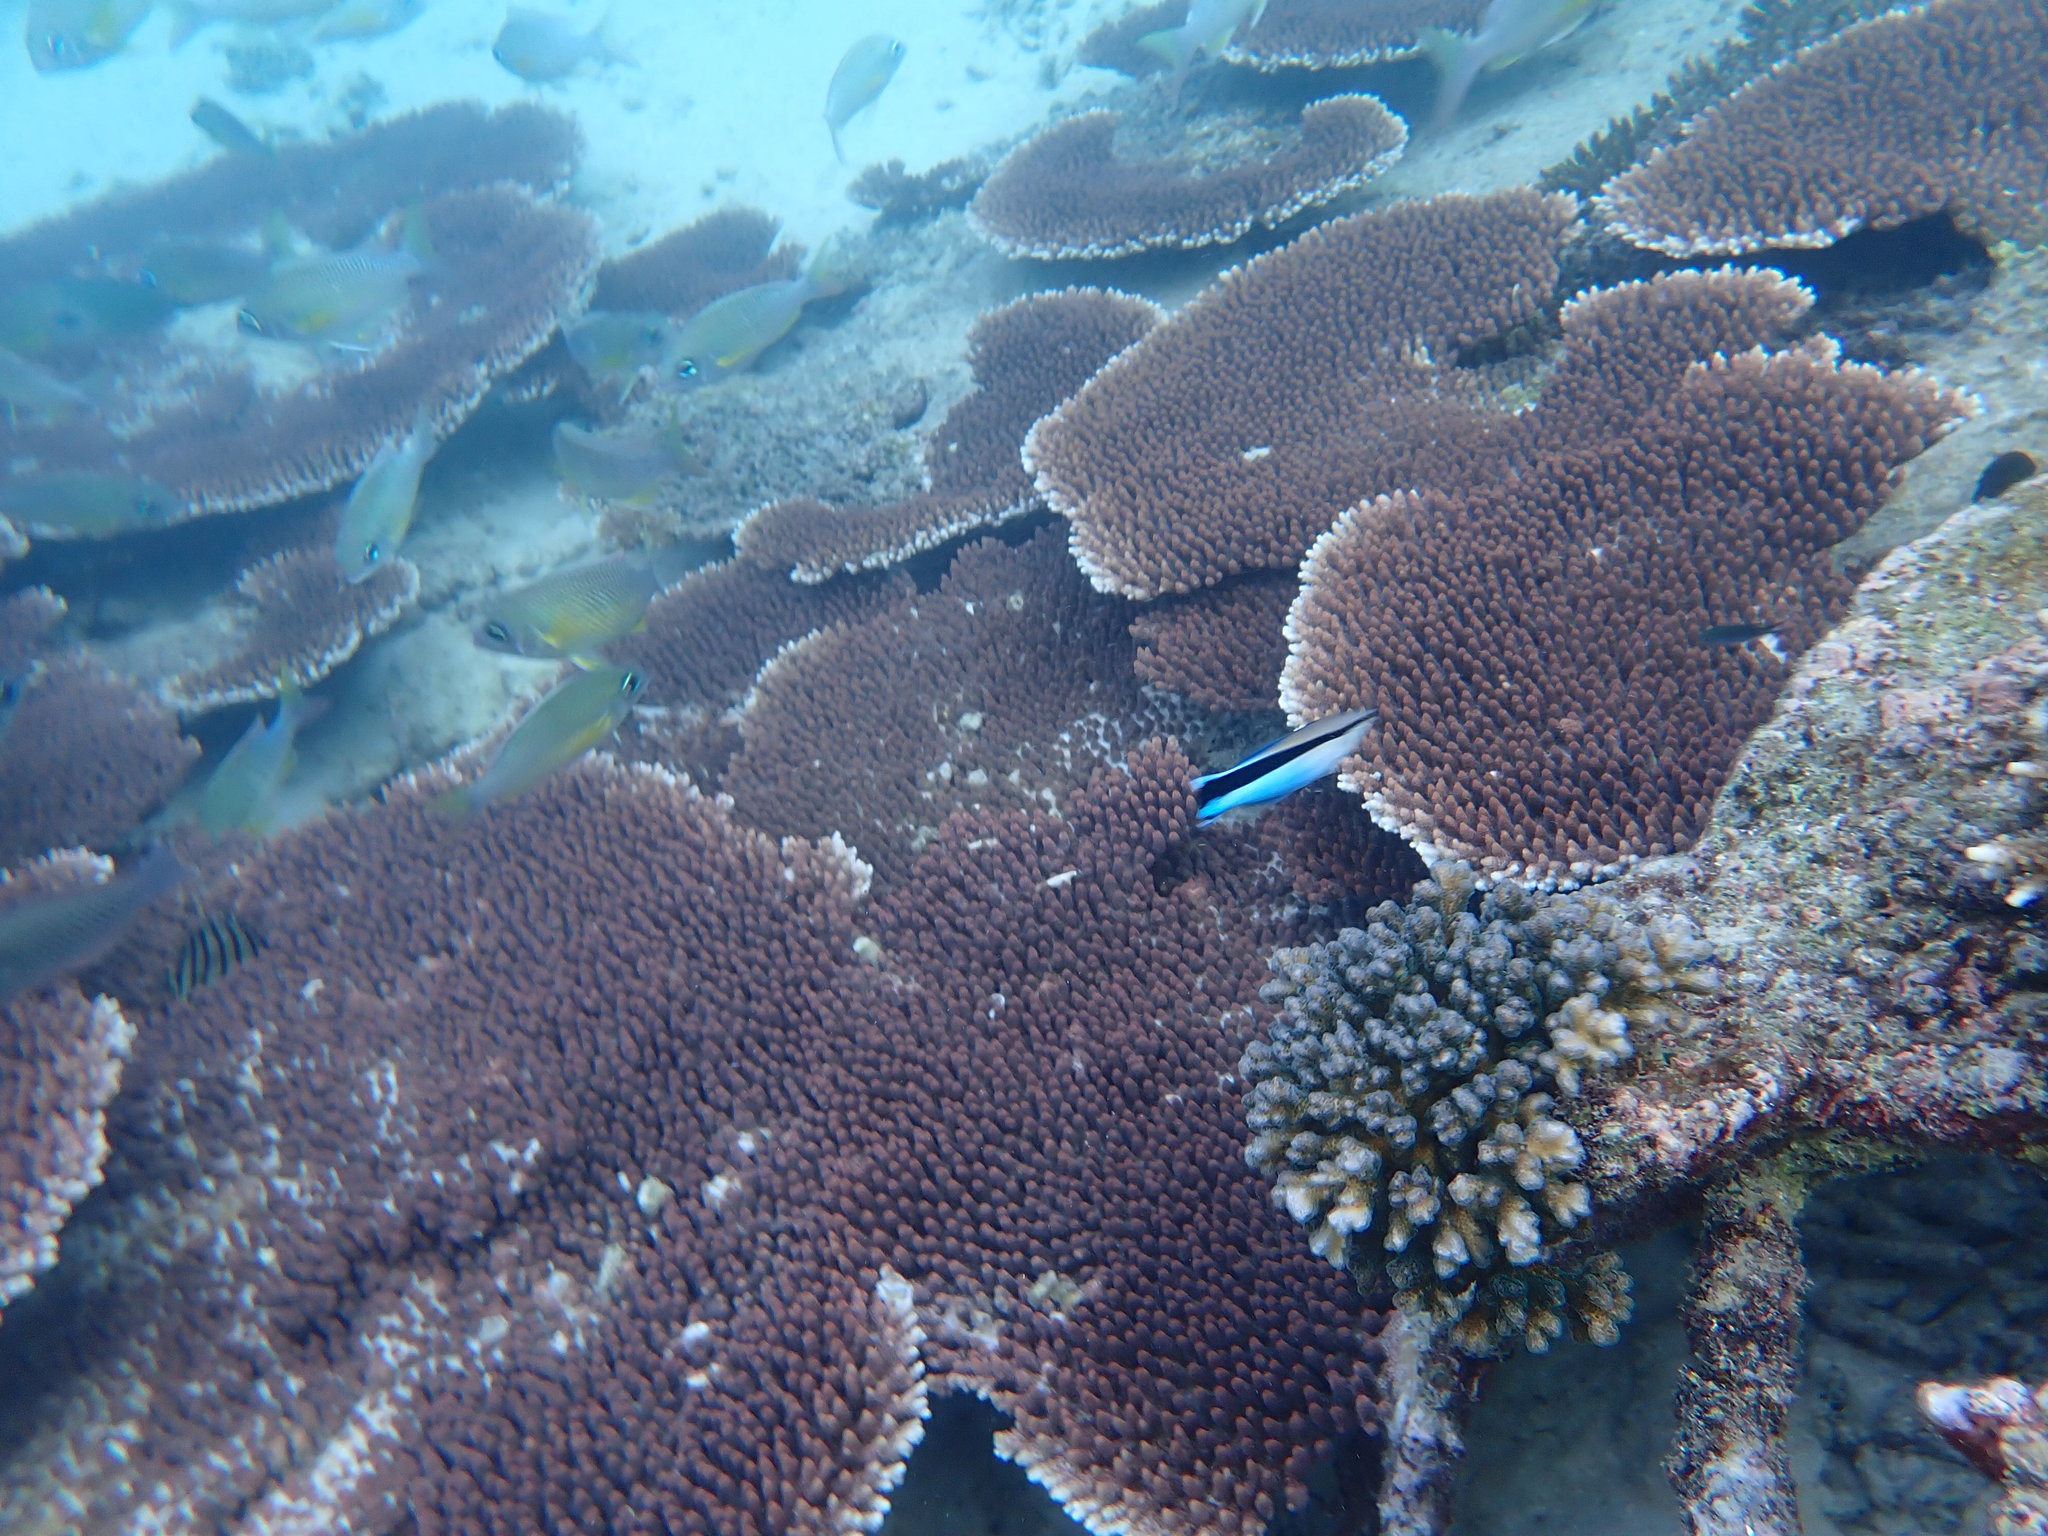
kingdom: Animalia
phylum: Chordata
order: Perciformes
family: Labridae
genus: Labroides
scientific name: Labroides dimidiatus
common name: Blue diesel wrasse
